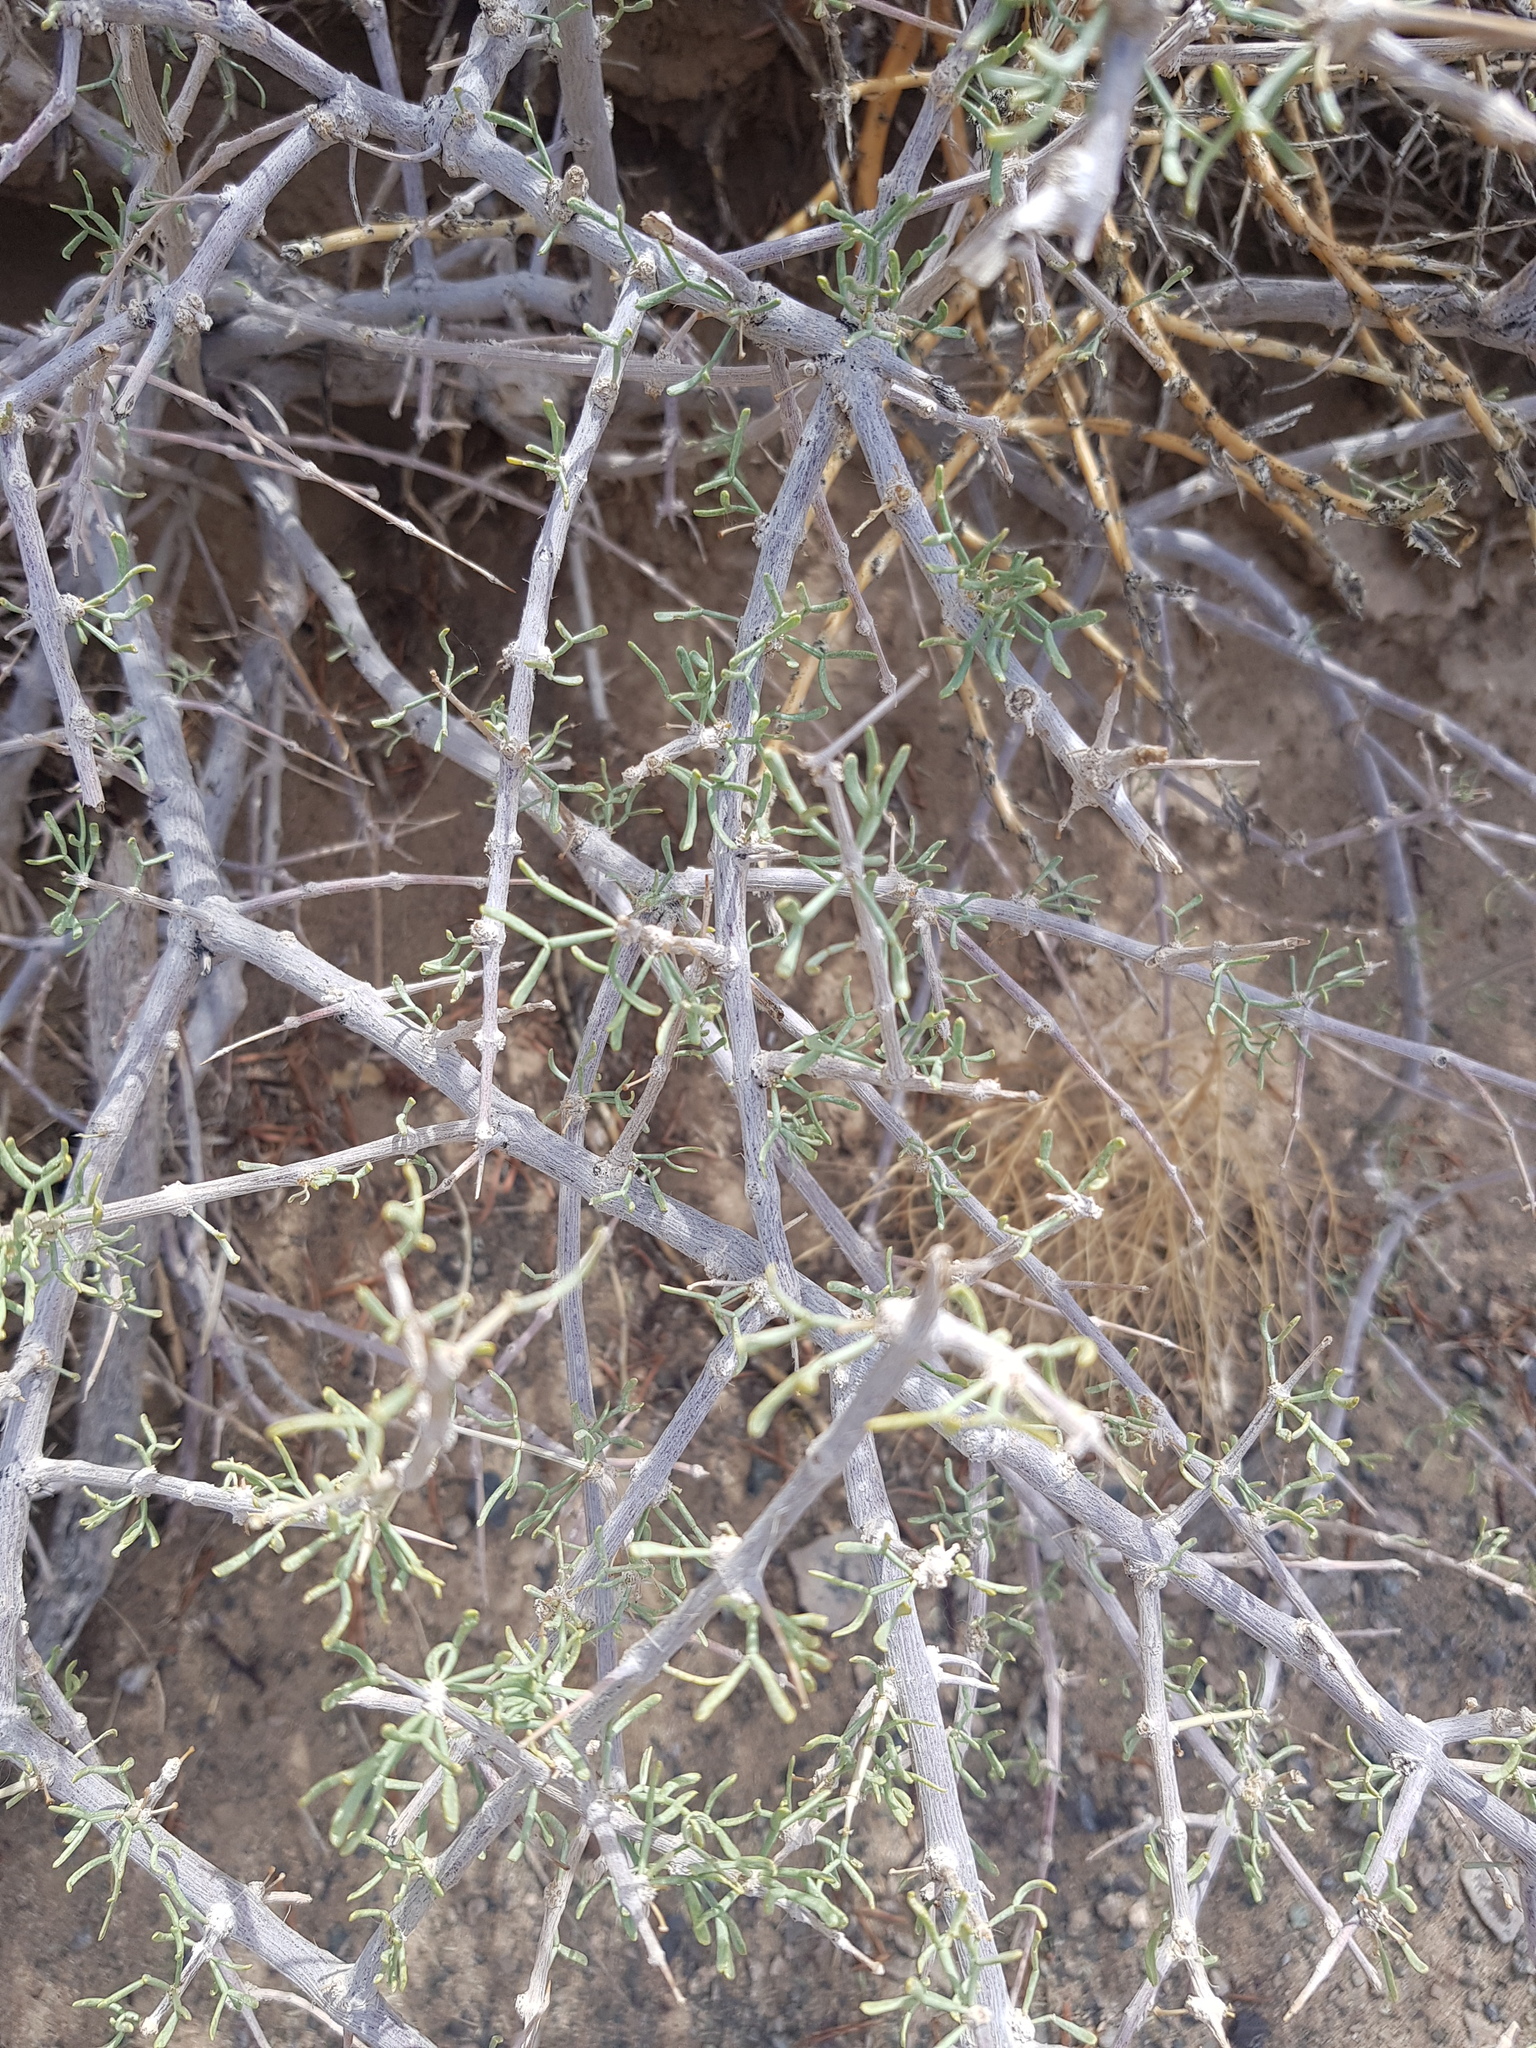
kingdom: Plantae
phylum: Tracheophyta
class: Magnoliopsida
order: Zygophyllales
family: Zygophyllaceae
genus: Zygophyllum
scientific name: Zygophyllum xanthoxylum
